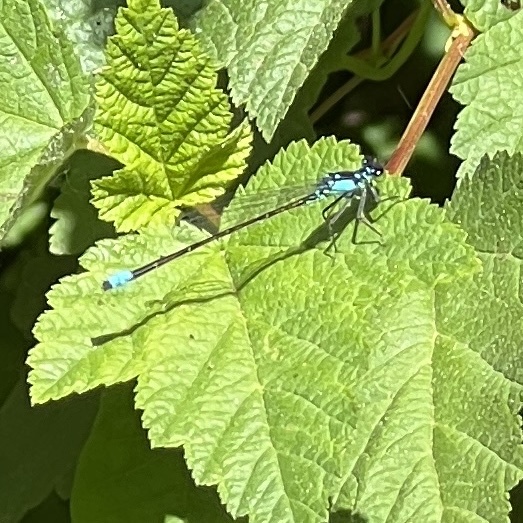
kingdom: Animalia
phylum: Arthropoda
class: Insecta
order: Odonata
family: Coenagrionidae
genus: Ischnura
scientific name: Ischnura cervula
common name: Pacific forktail
